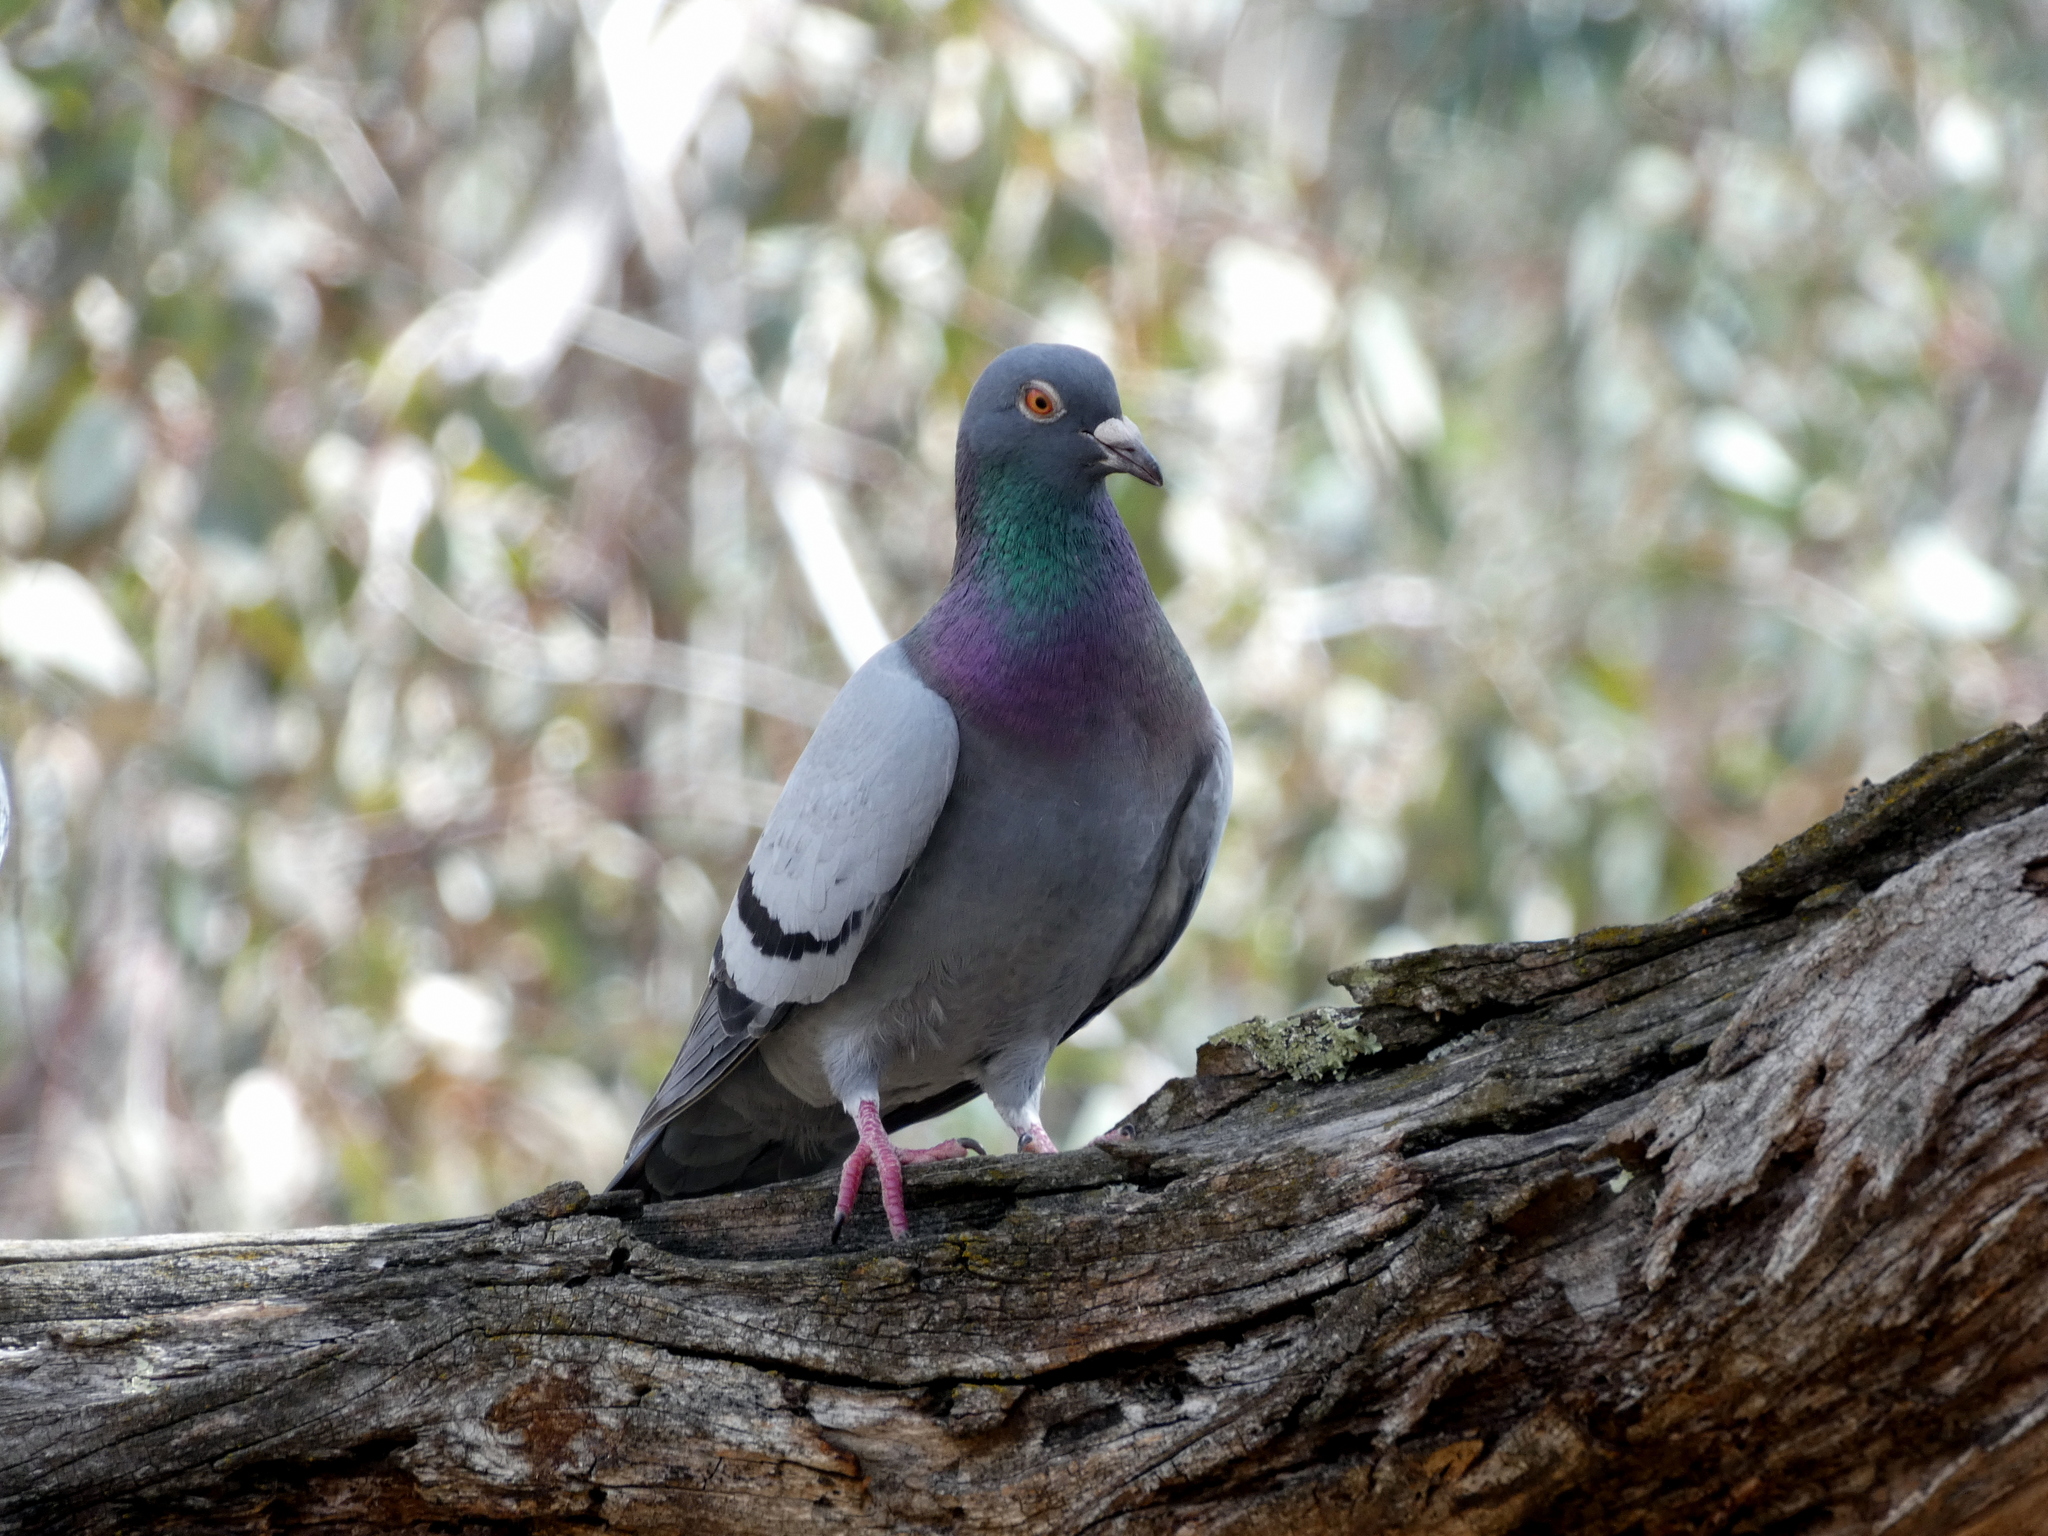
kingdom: Animalia
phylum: Chordata
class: Aves
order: Columbiformes
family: Columbidae
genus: Columba
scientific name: Columba livia
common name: Rock pigeon
